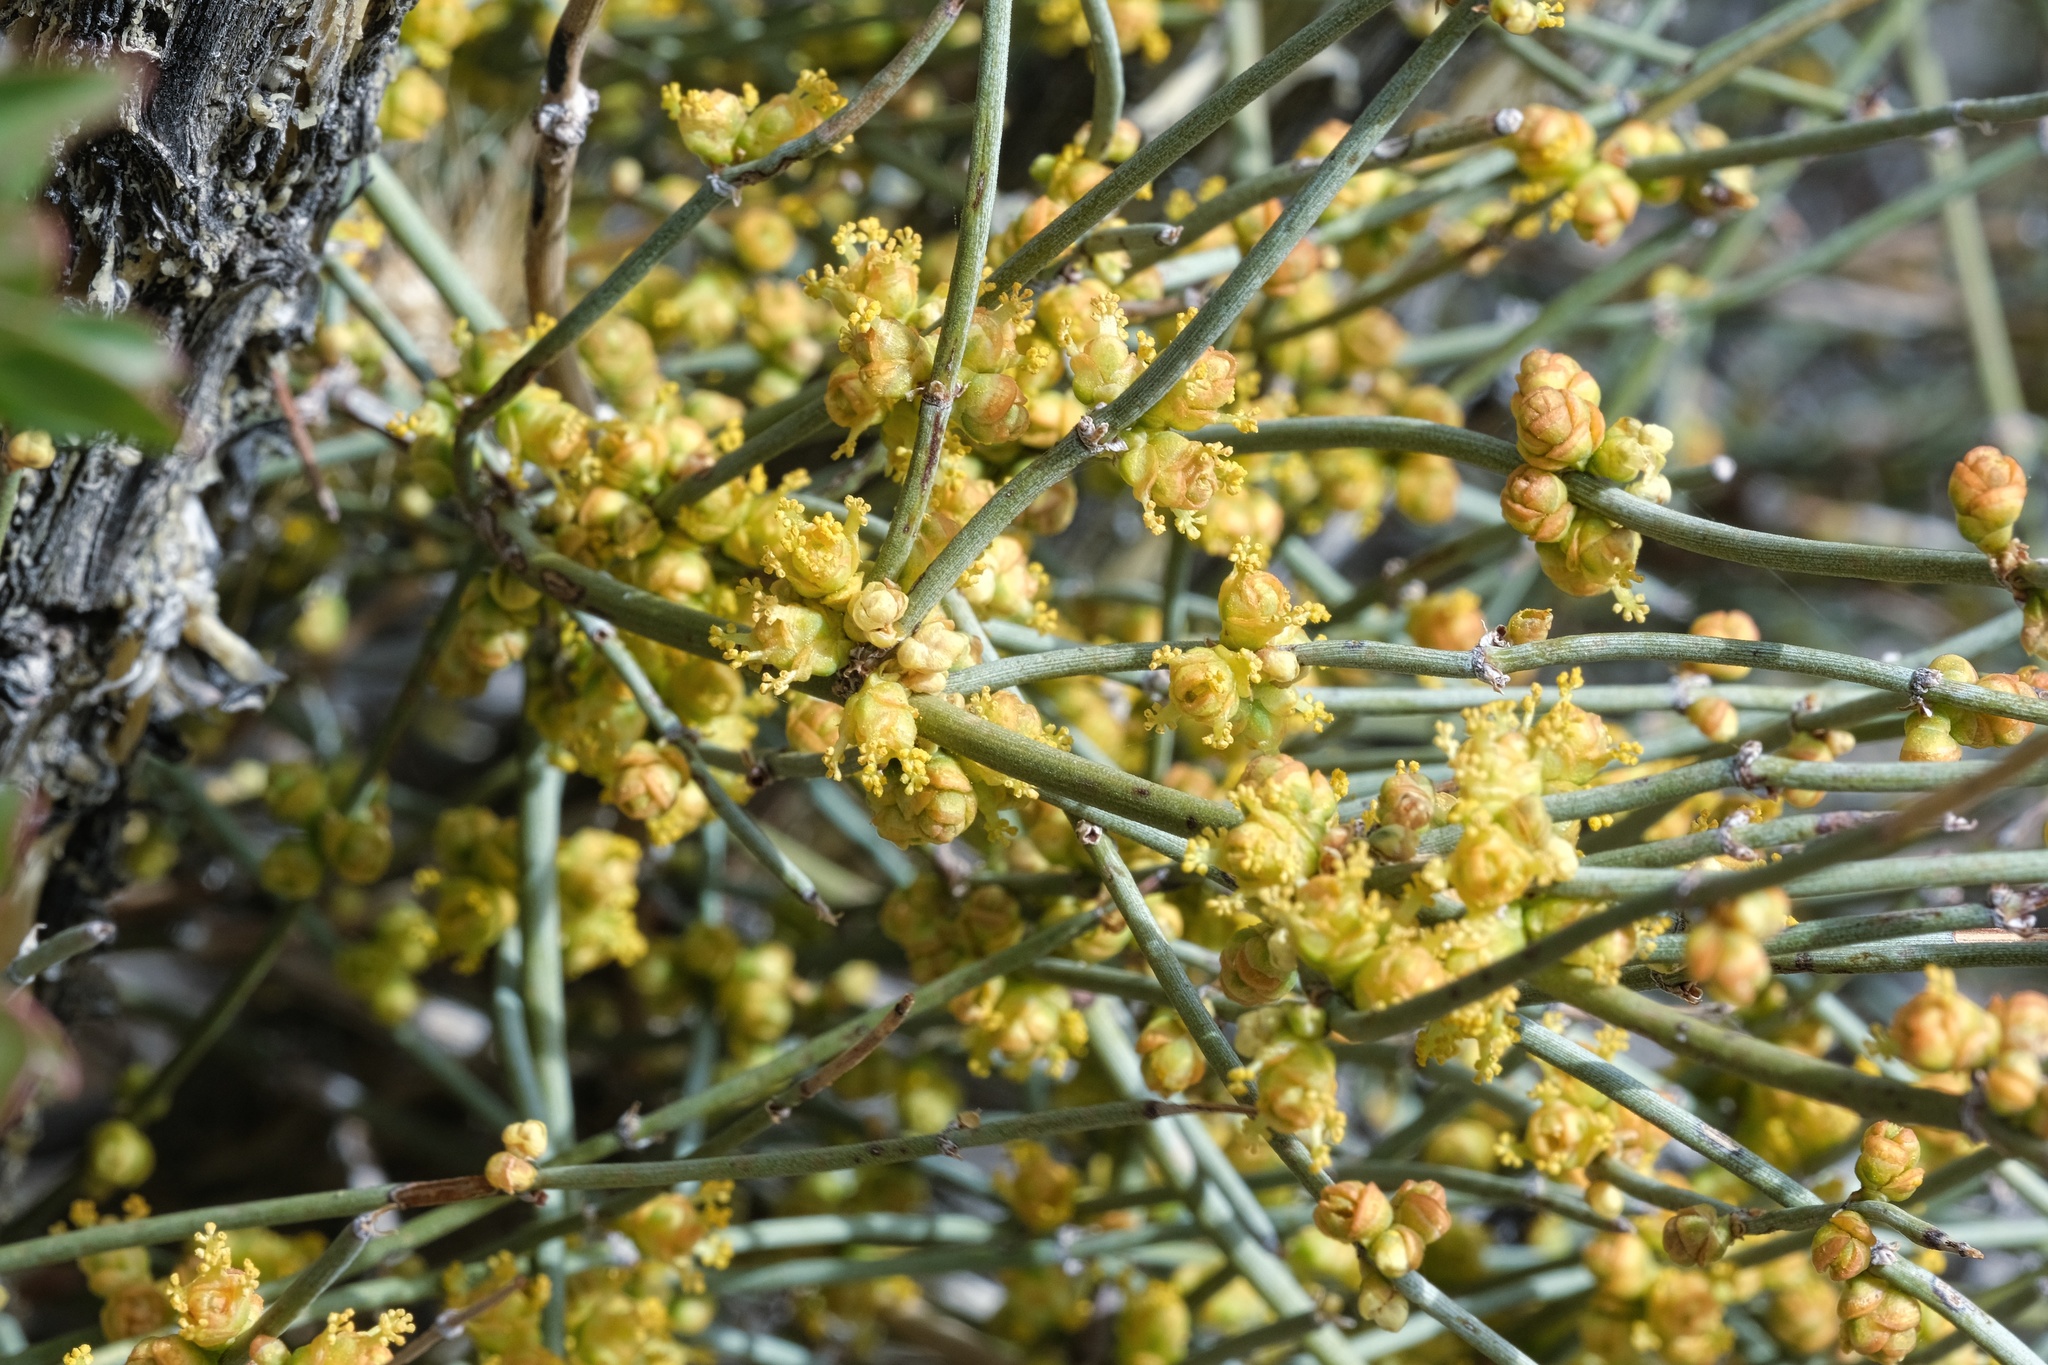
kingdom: Plantae
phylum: Tracheophyta
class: Gnetopsida
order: Ephedrales
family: Ephedraceae
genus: Ephedra
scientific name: Ephedra aspera
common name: Boundary ephedra
